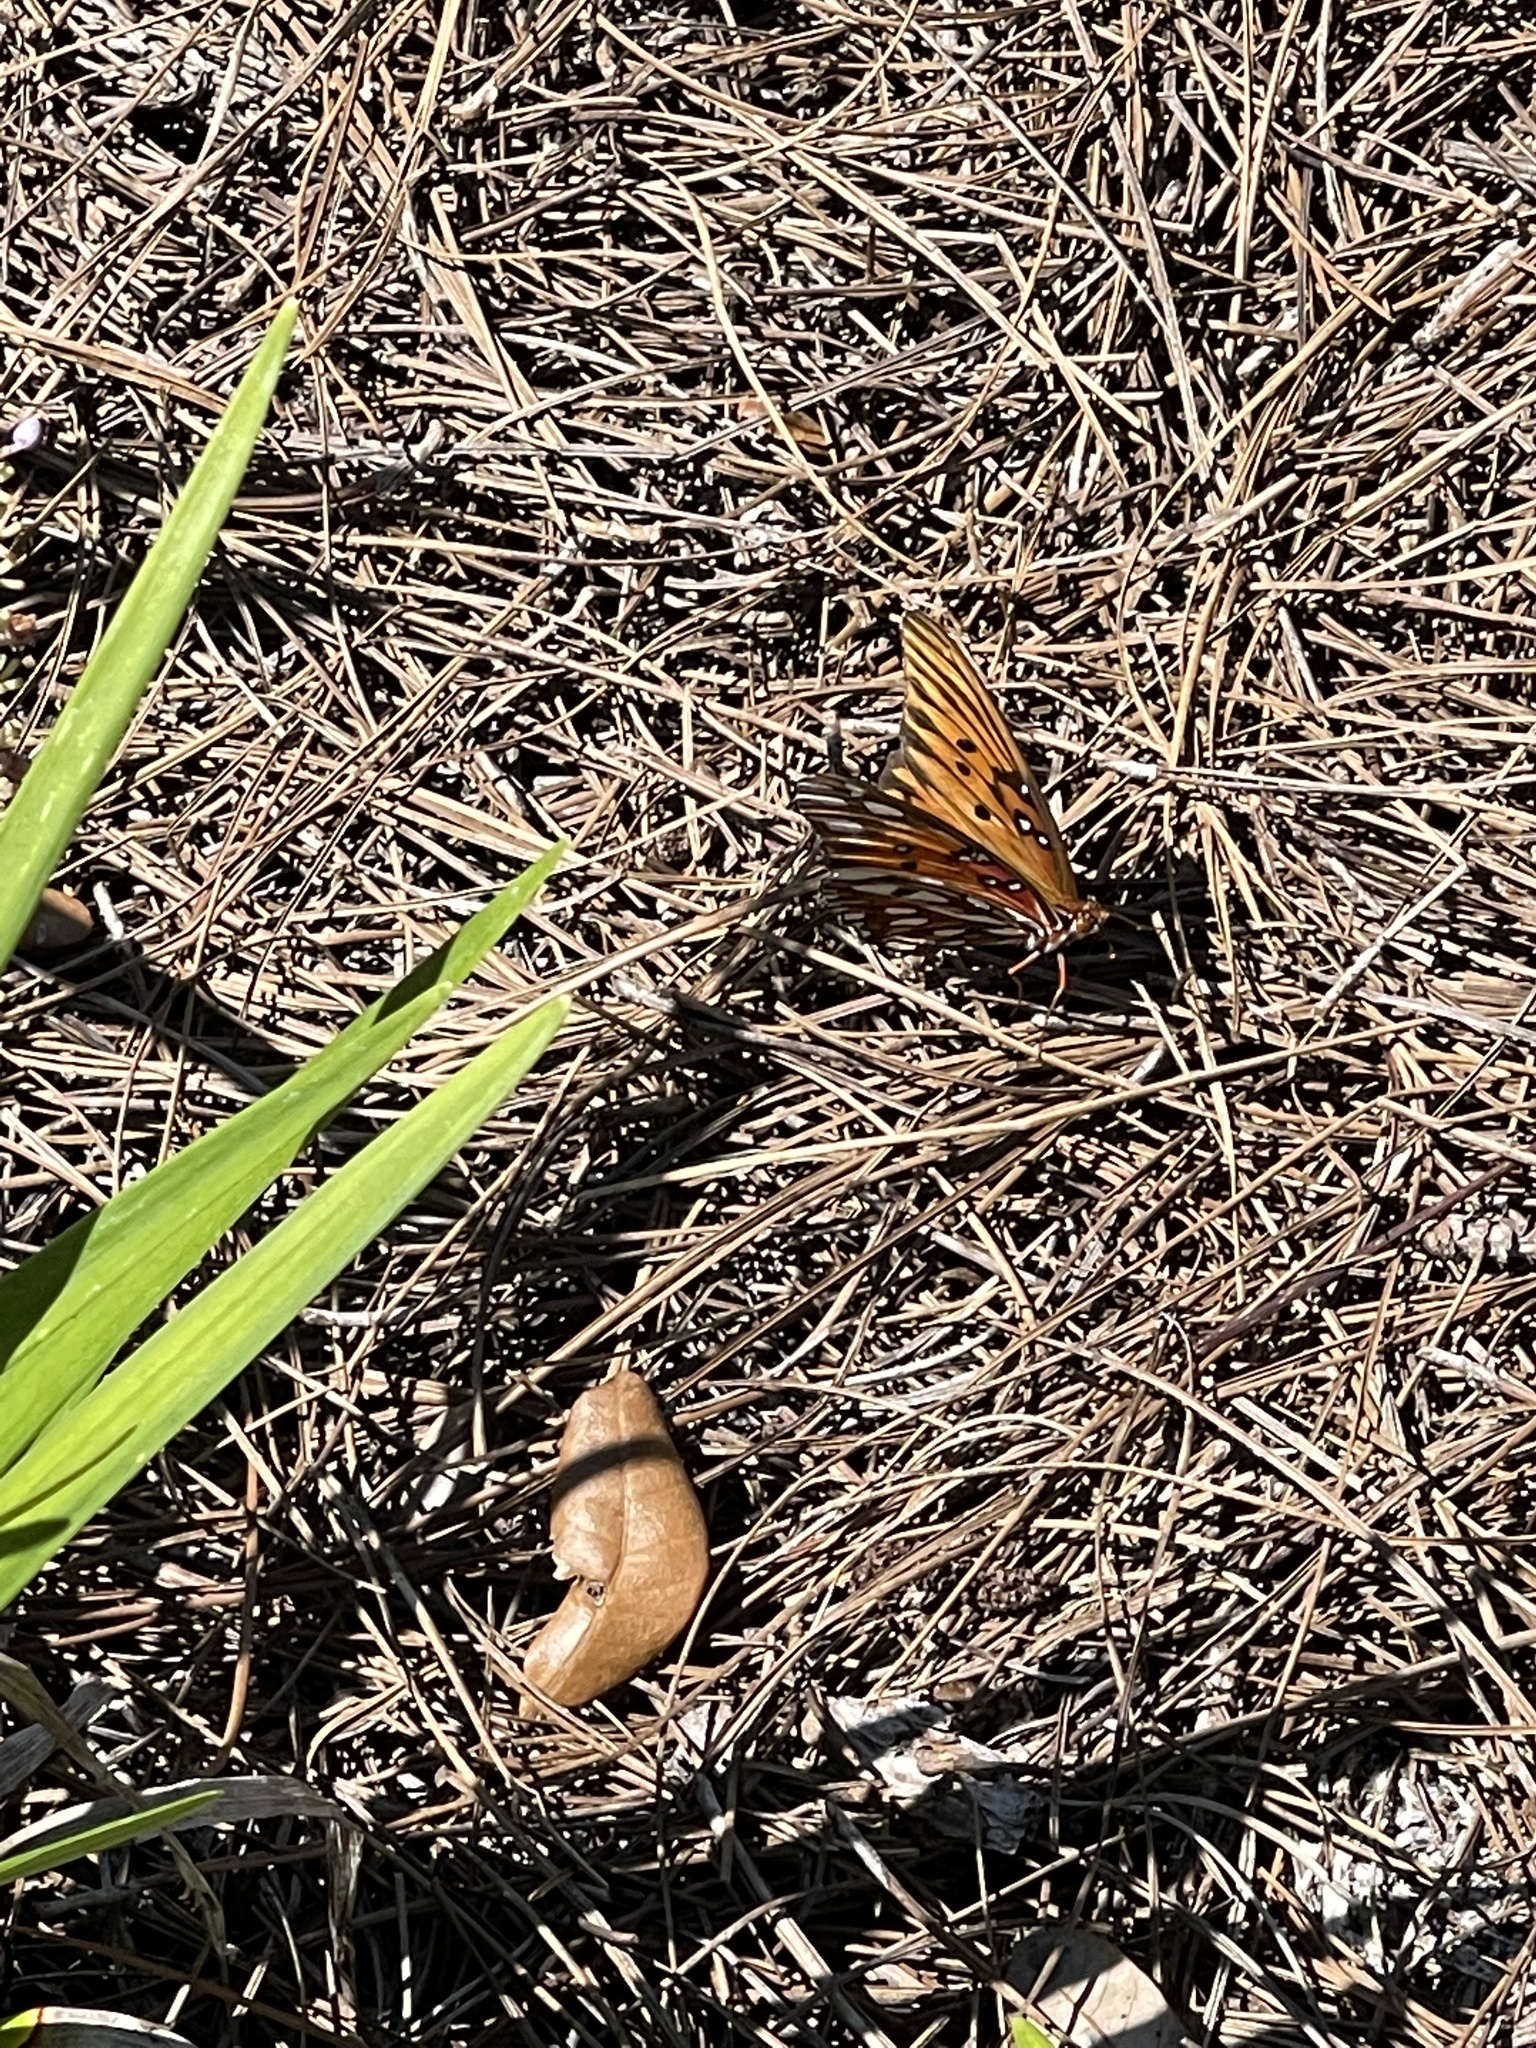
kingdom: Animalia
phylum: Arthropoda
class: Insecta
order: Lepidoptera
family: Nymphalidae
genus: Dione
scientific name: Dione vanillae
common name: Gulf fritillary
